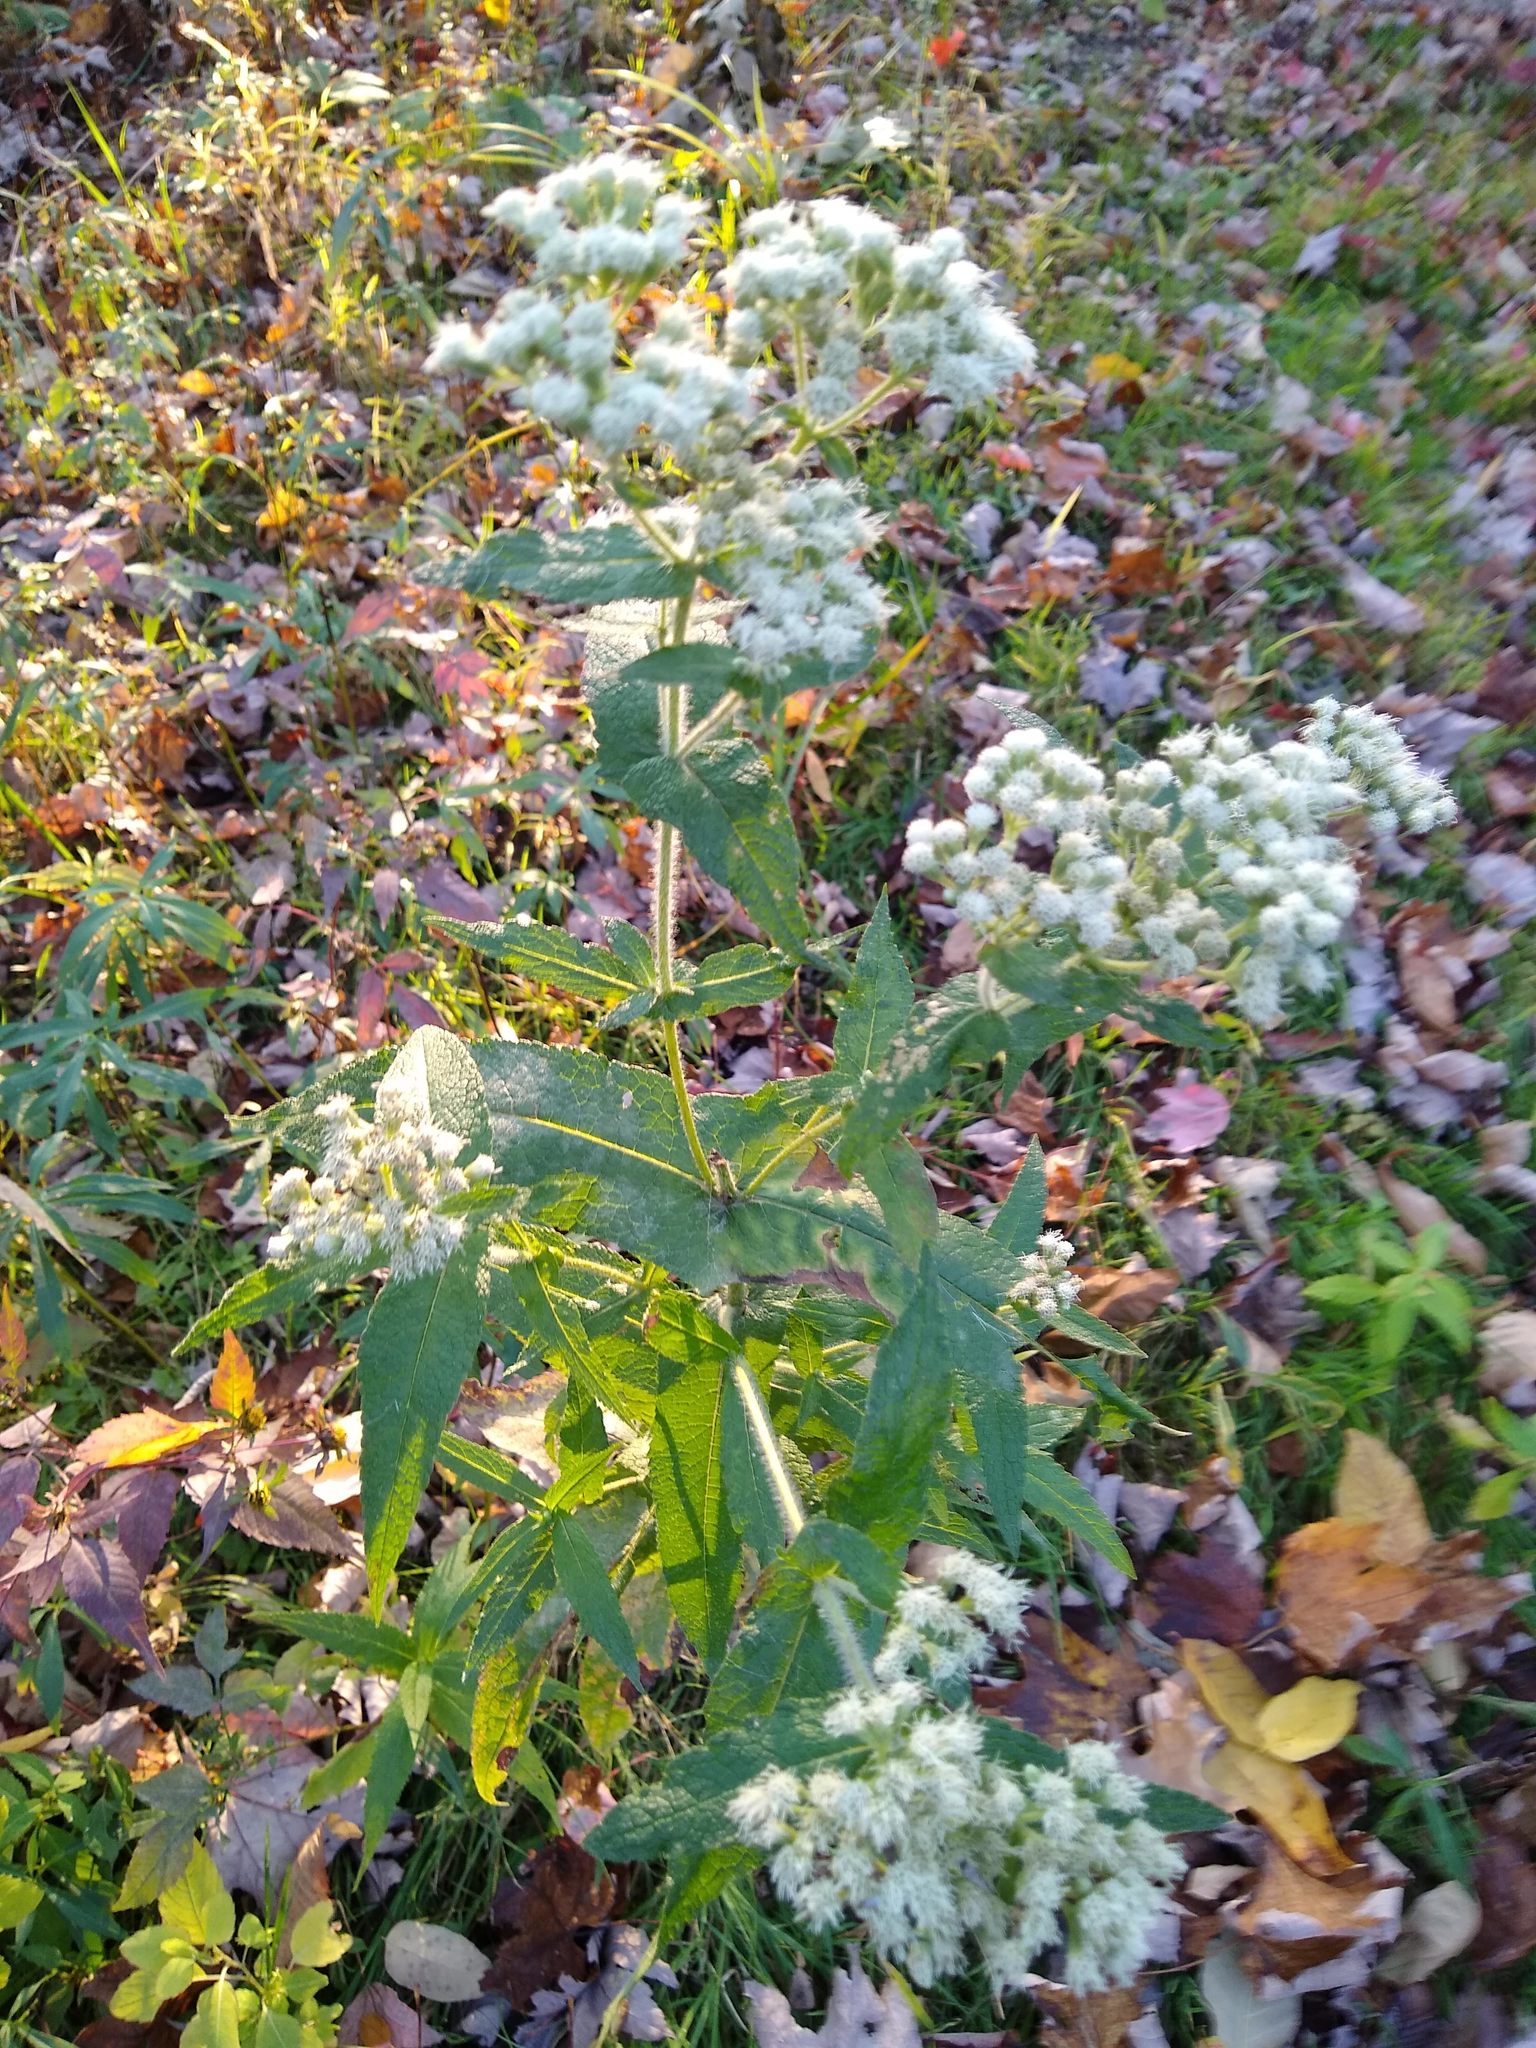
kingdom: Plantae
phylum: Tracheophyta
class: Magnoliopsida
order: Asterales
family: Asteraceae
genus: Eupatorium
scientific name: Eupatorium perfoliatum
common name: Boneset
